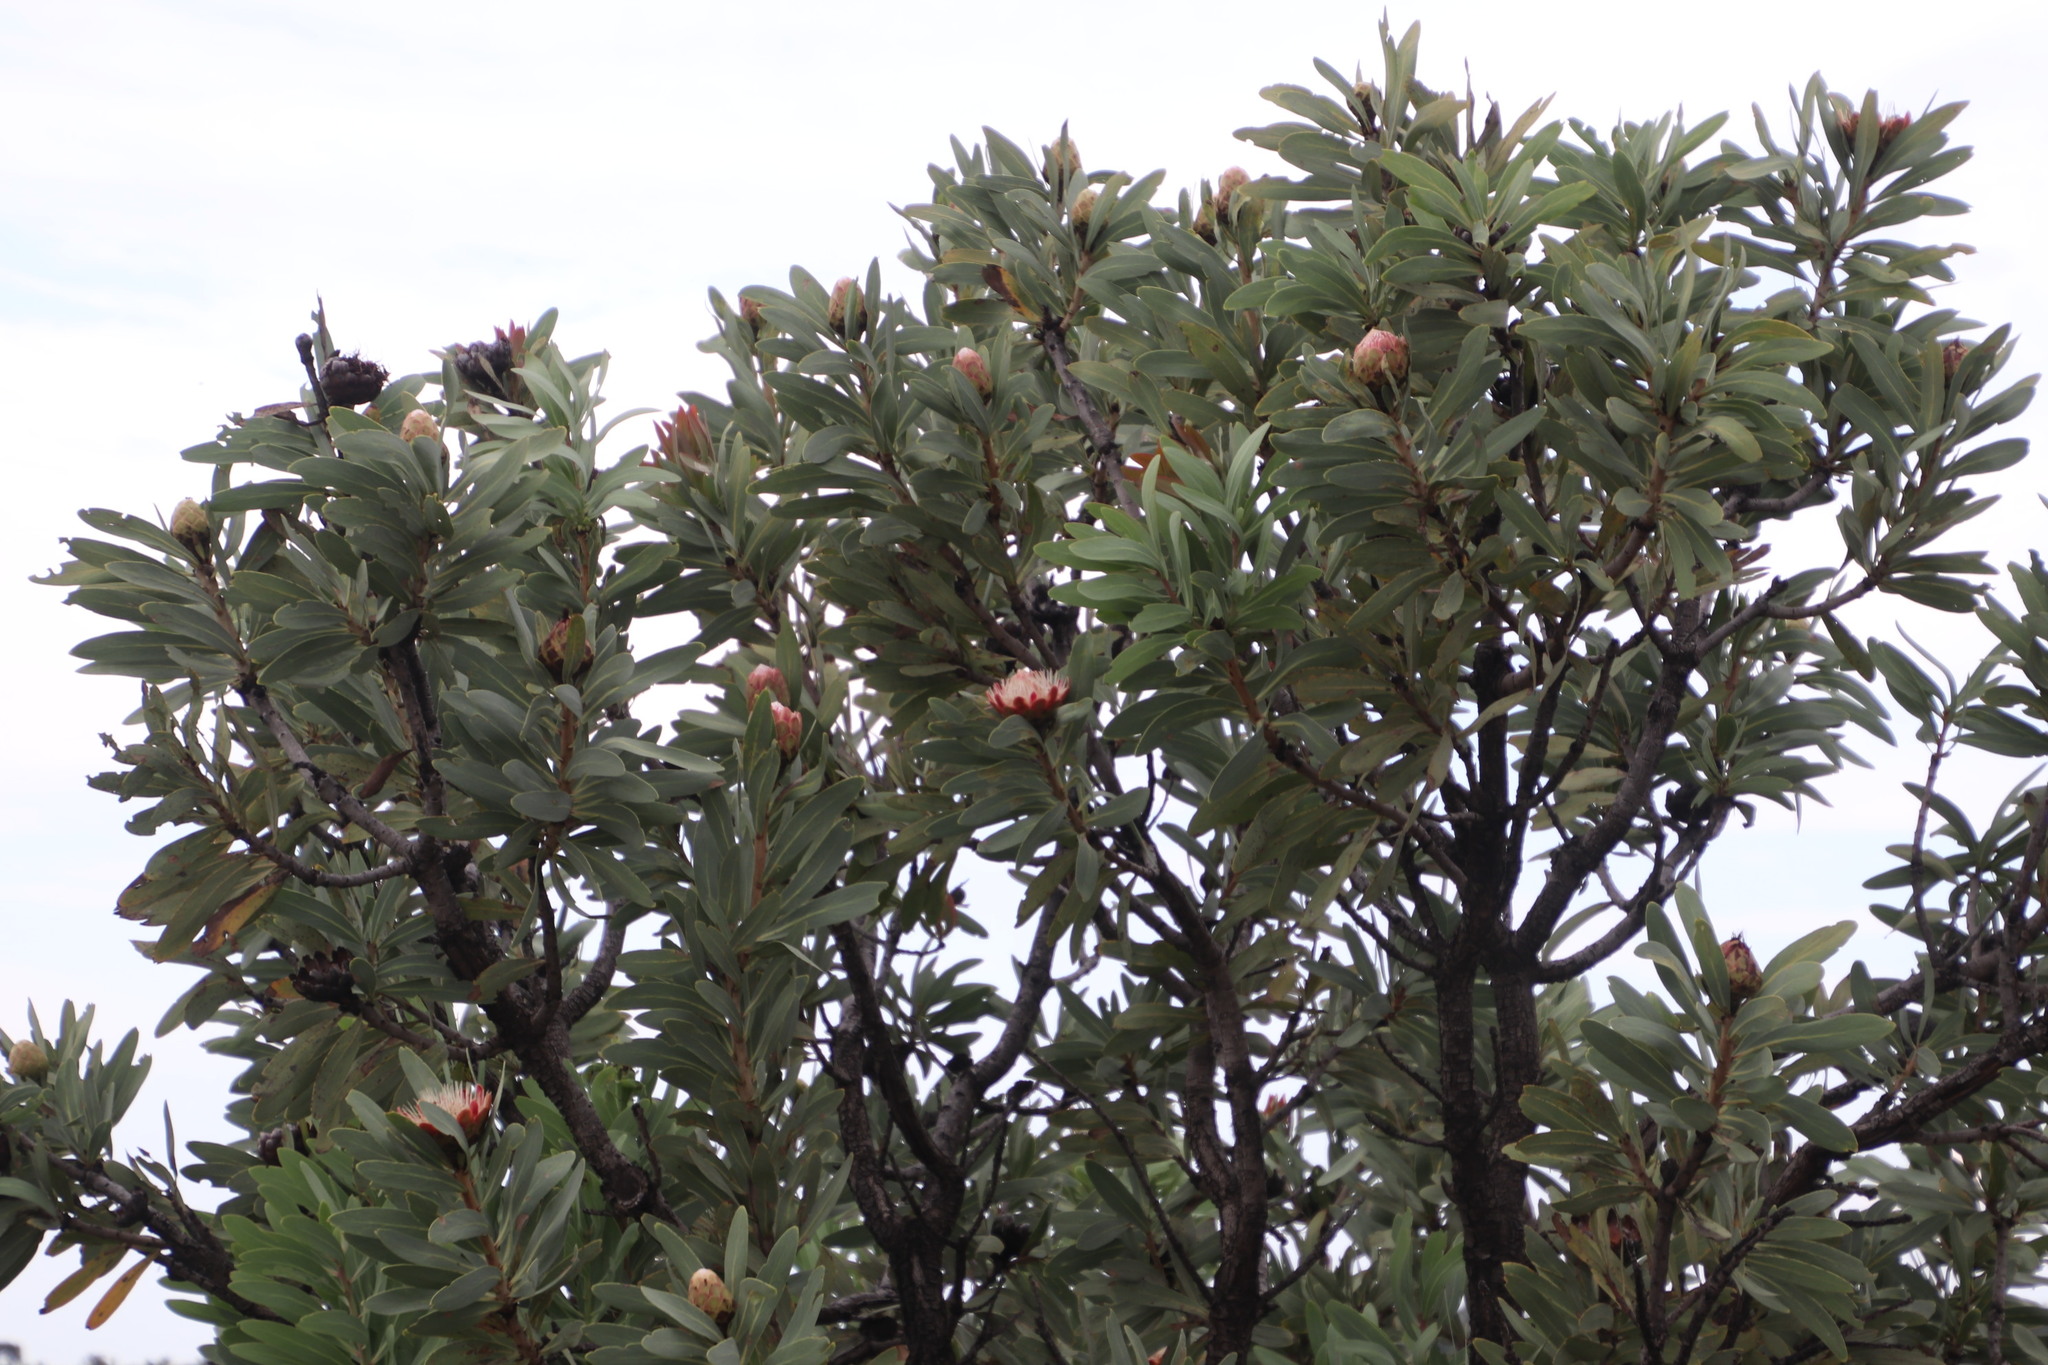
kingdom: Plantae
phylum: Tracheophyta
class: Magnoliopsida
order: Proteales
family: Proteaceae
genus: Protea
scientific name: Protea caffra
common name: Common sugarbush
